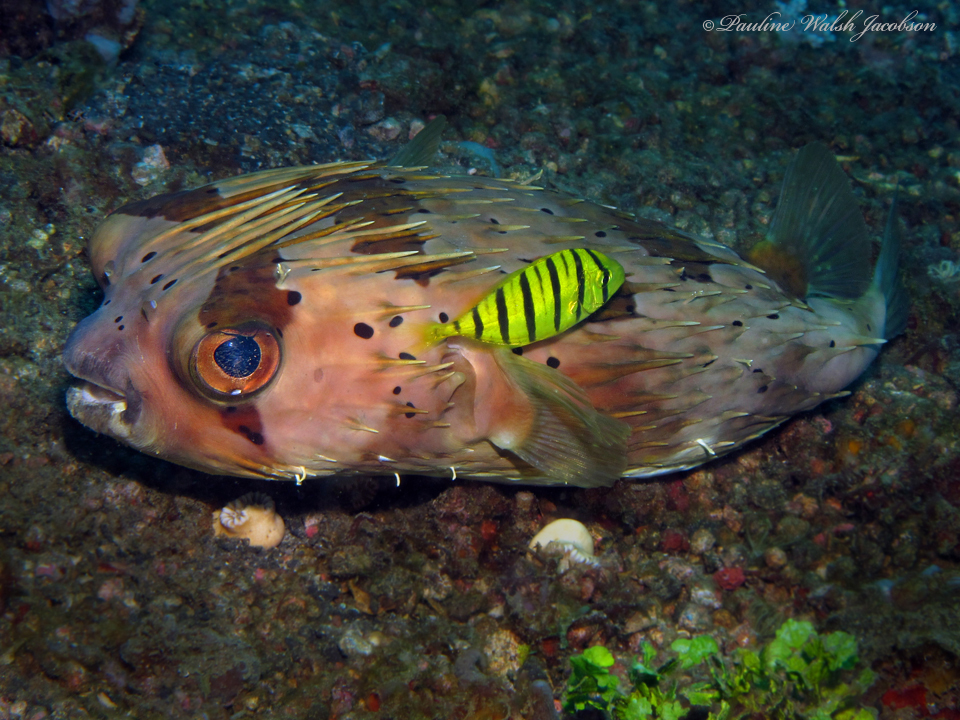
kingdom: Animalia
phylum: Chordata
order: Perciformes
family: Carangidae
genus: Gnathanodon
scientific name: Gnathanodon speciosus
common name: Golden toothless trevally
